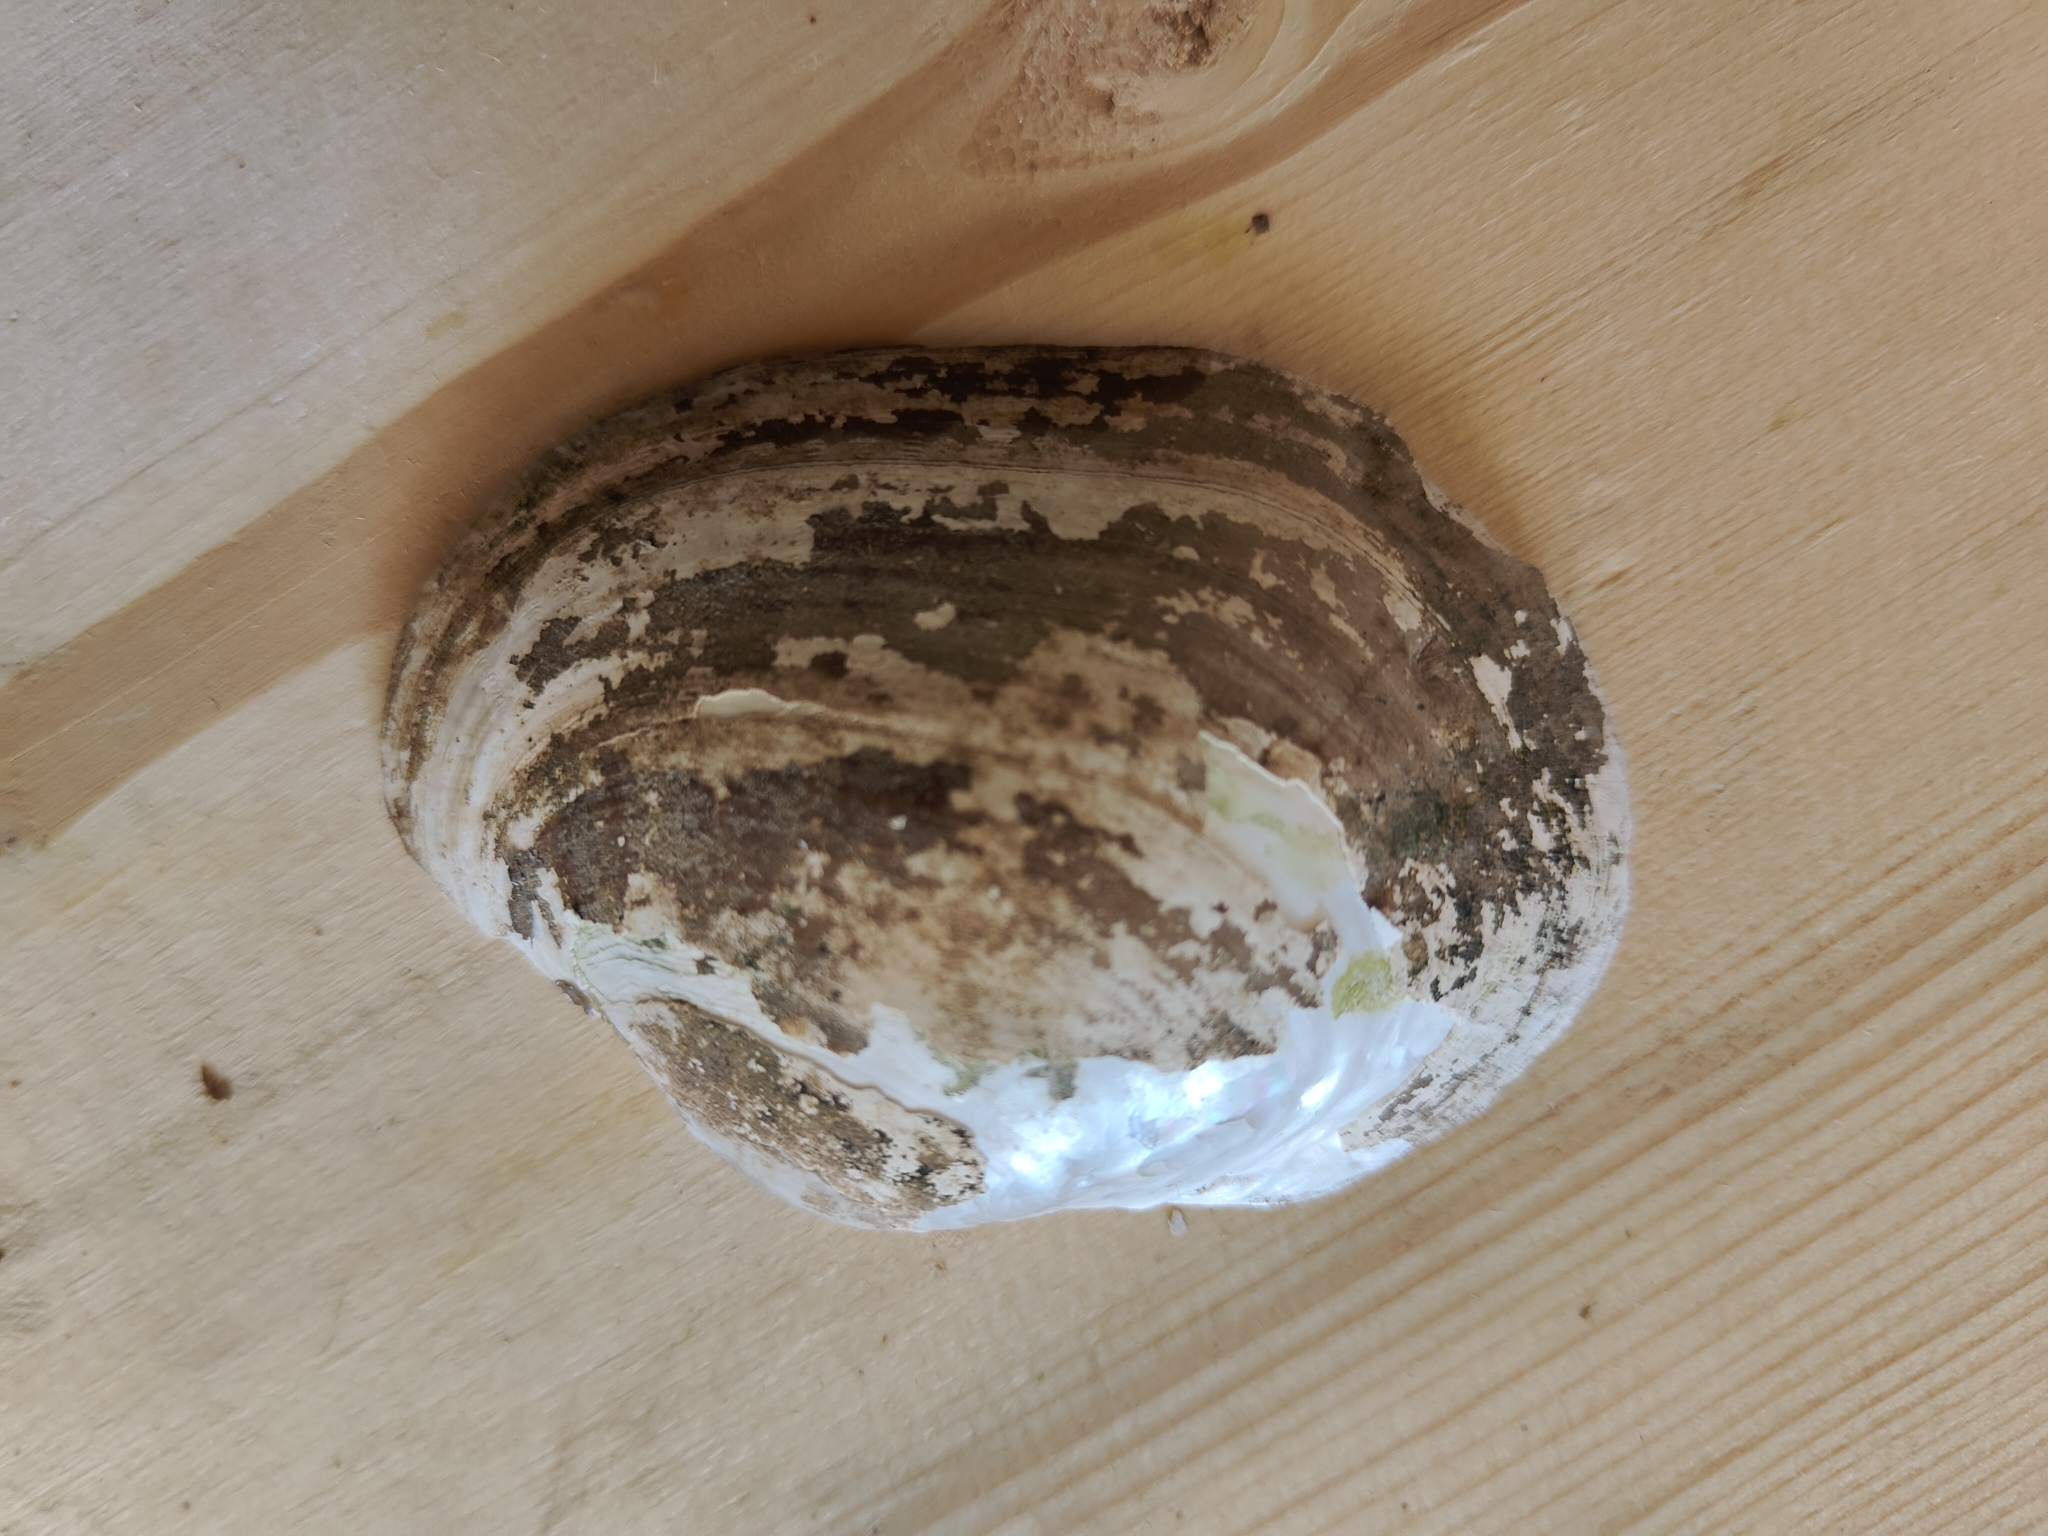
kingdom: Animalia
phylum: Mollusca
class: Bivalvia
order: Unionida
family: Unionidae
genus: Lampsilis
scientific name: Lampsilis cardium
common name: Plain pocketbook
